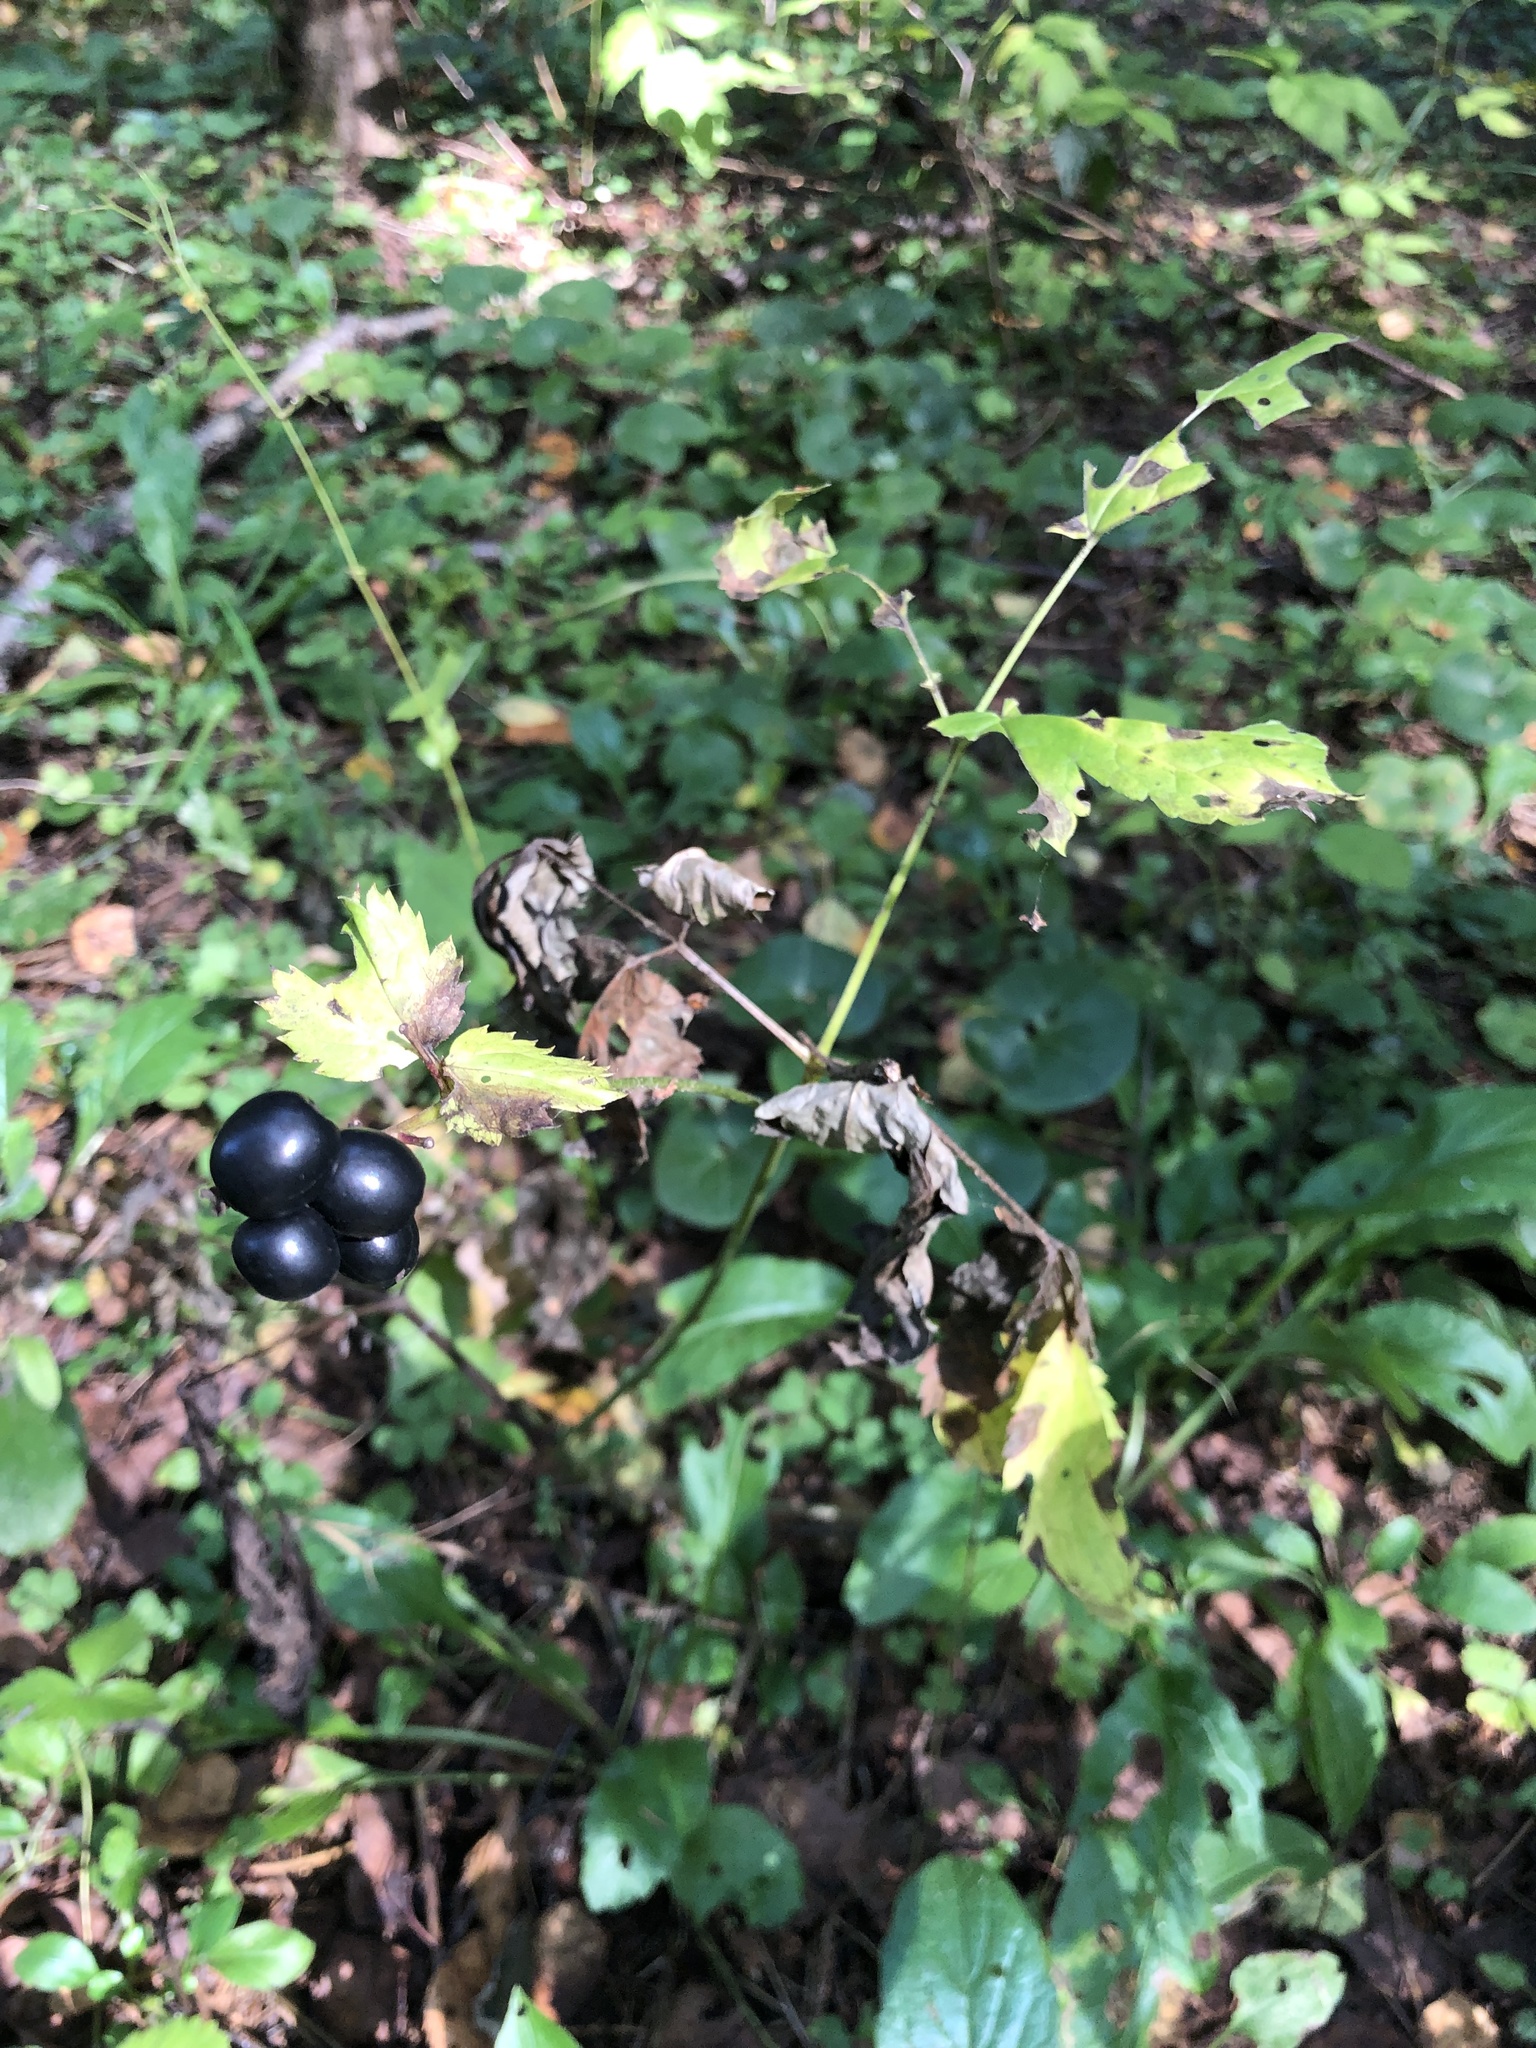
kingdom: Plantae
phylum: Tracheophyta
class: Magnoliopsida
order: Ranunculales
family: Ranunculaceae
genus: Actaea
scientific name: Actaea spicata
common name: Baneberry
